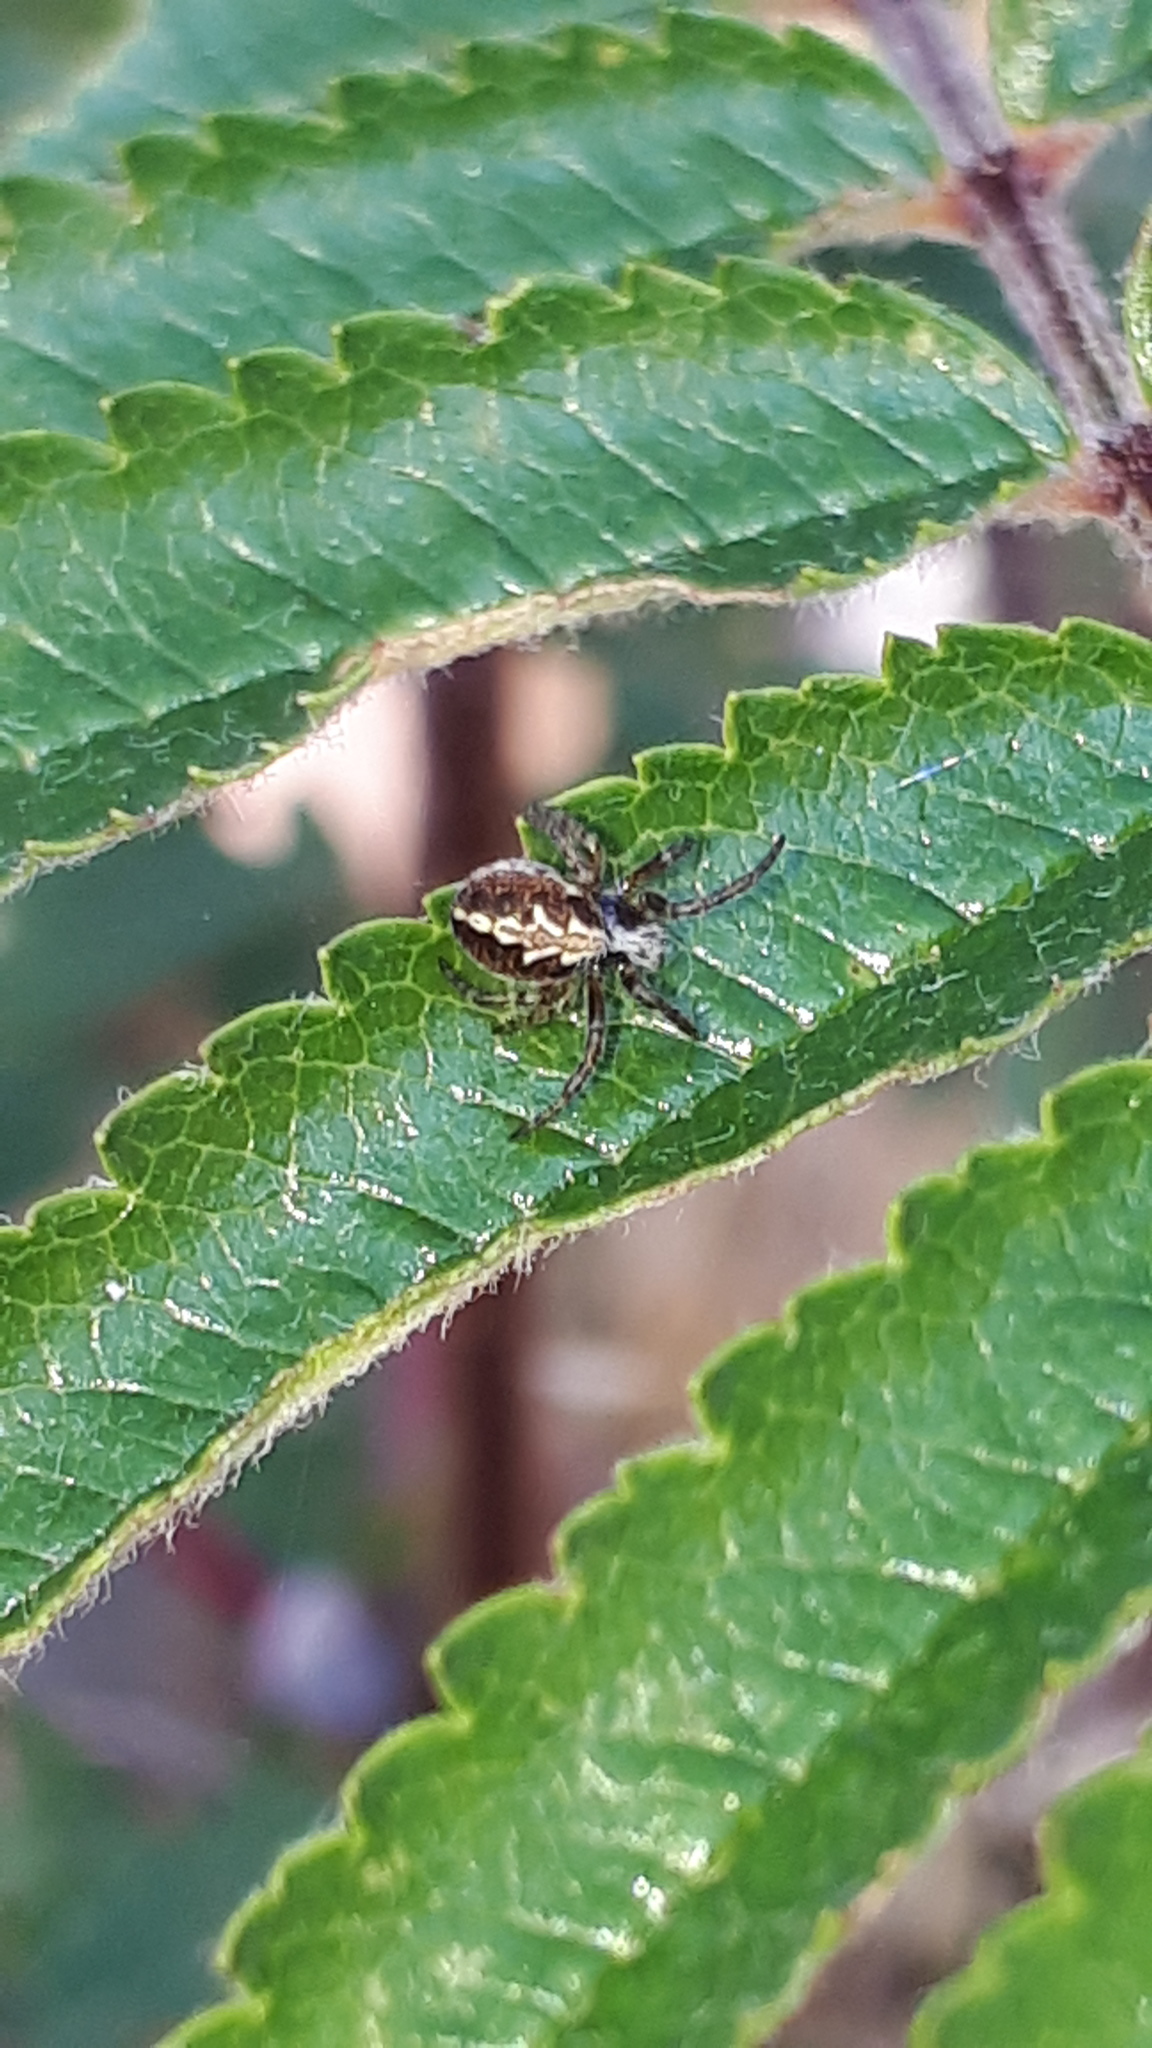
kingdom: Animalia
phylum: Arthropoda
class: Arachnida
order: Araneae
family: Araneidae
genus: Aculepeira
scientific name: Aculepeira ceropegia
